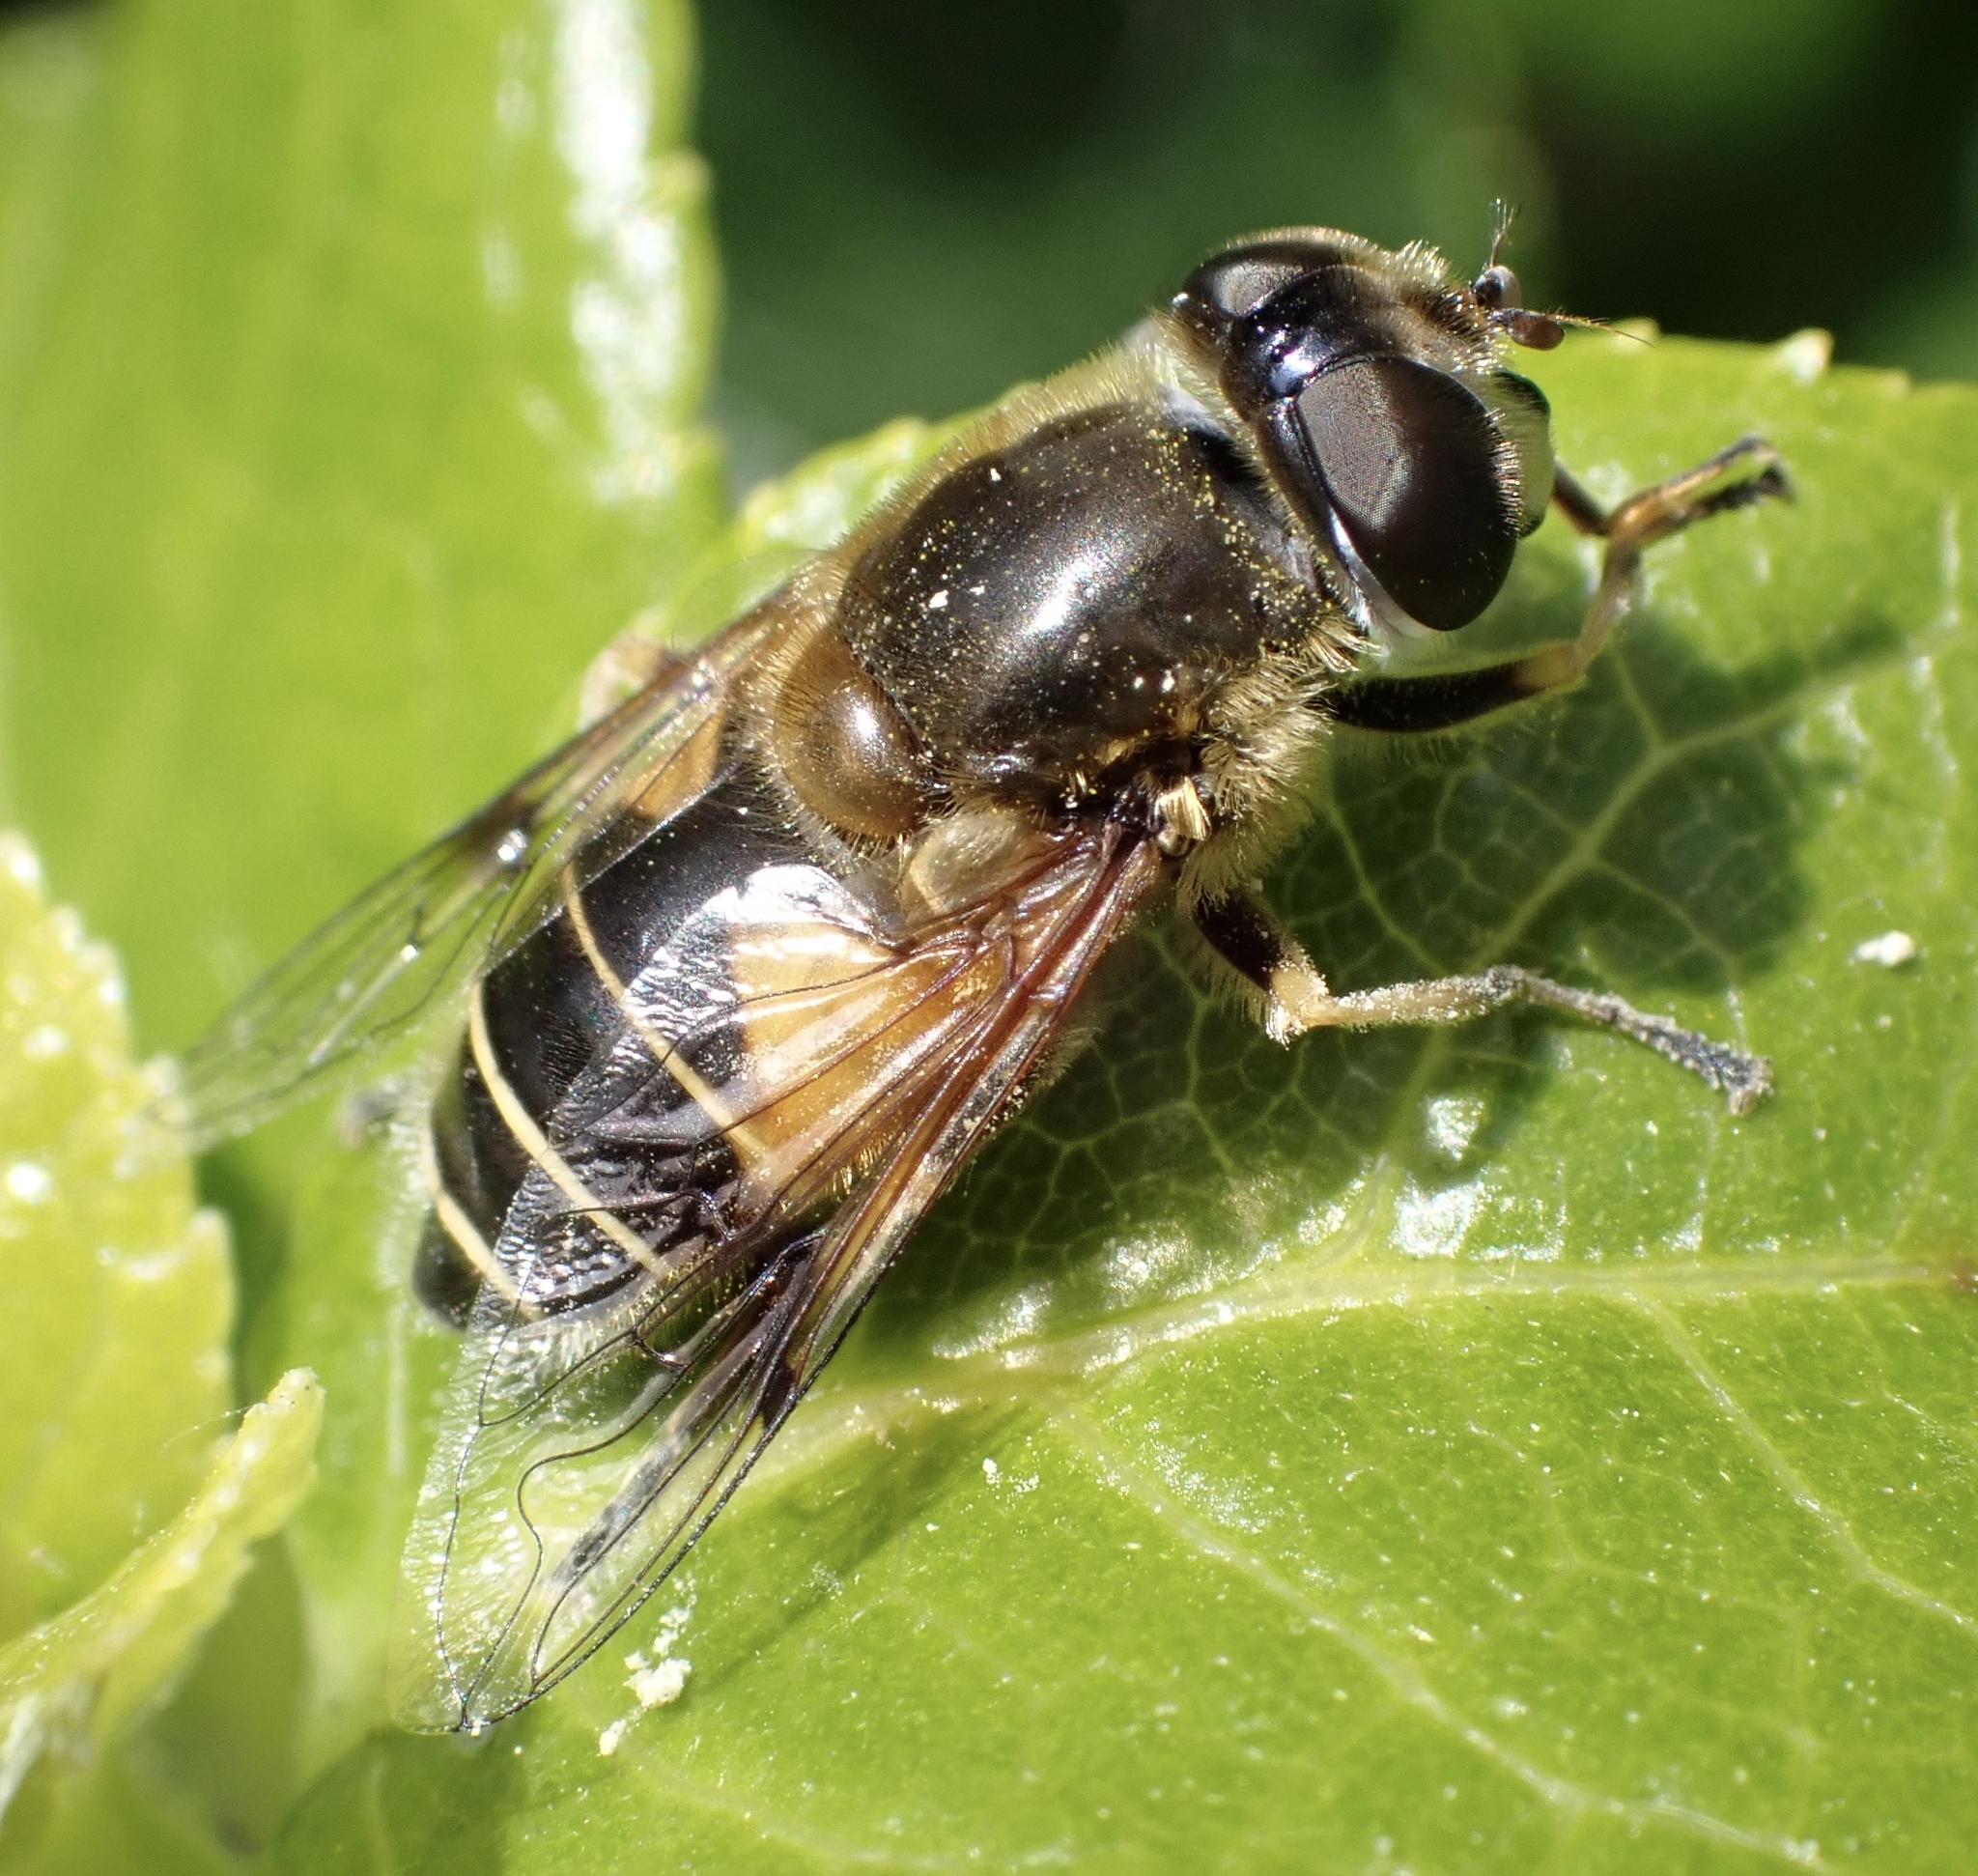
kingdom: Animalia
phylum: Arthropoda
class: Insecta
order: Diptera
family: Syrphidae
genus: Cheilosia
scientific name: Cheilosia morio
